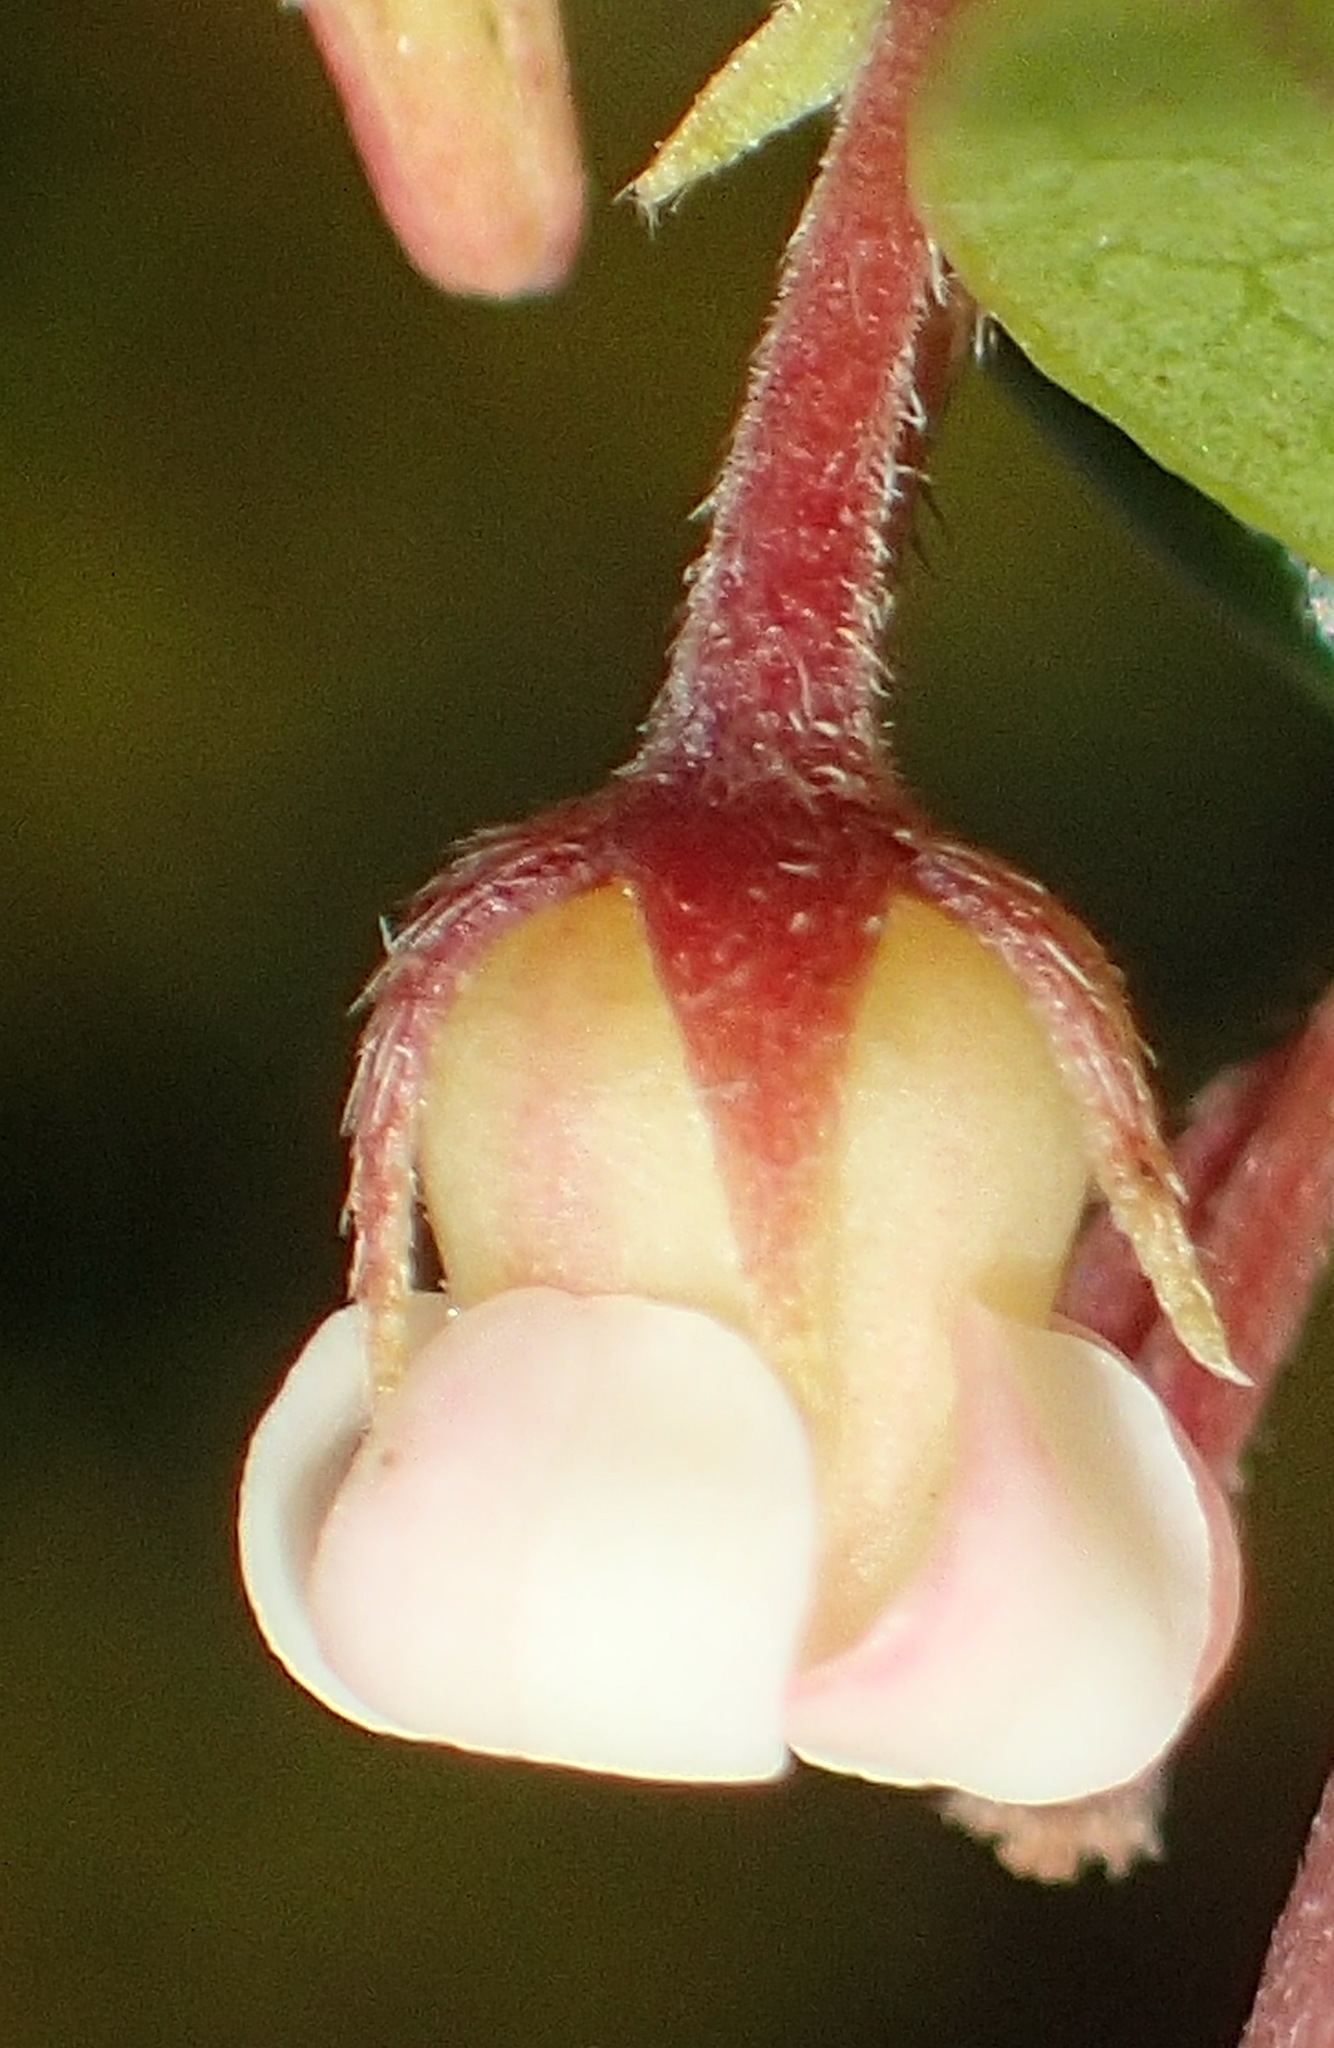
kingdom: Plantae
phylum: Tracheophyta
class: Magnoliopsida
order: Ericales
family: Ebenaceae
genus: Diospyros
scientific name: Diospyros glabra
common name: Fynbos star apple
